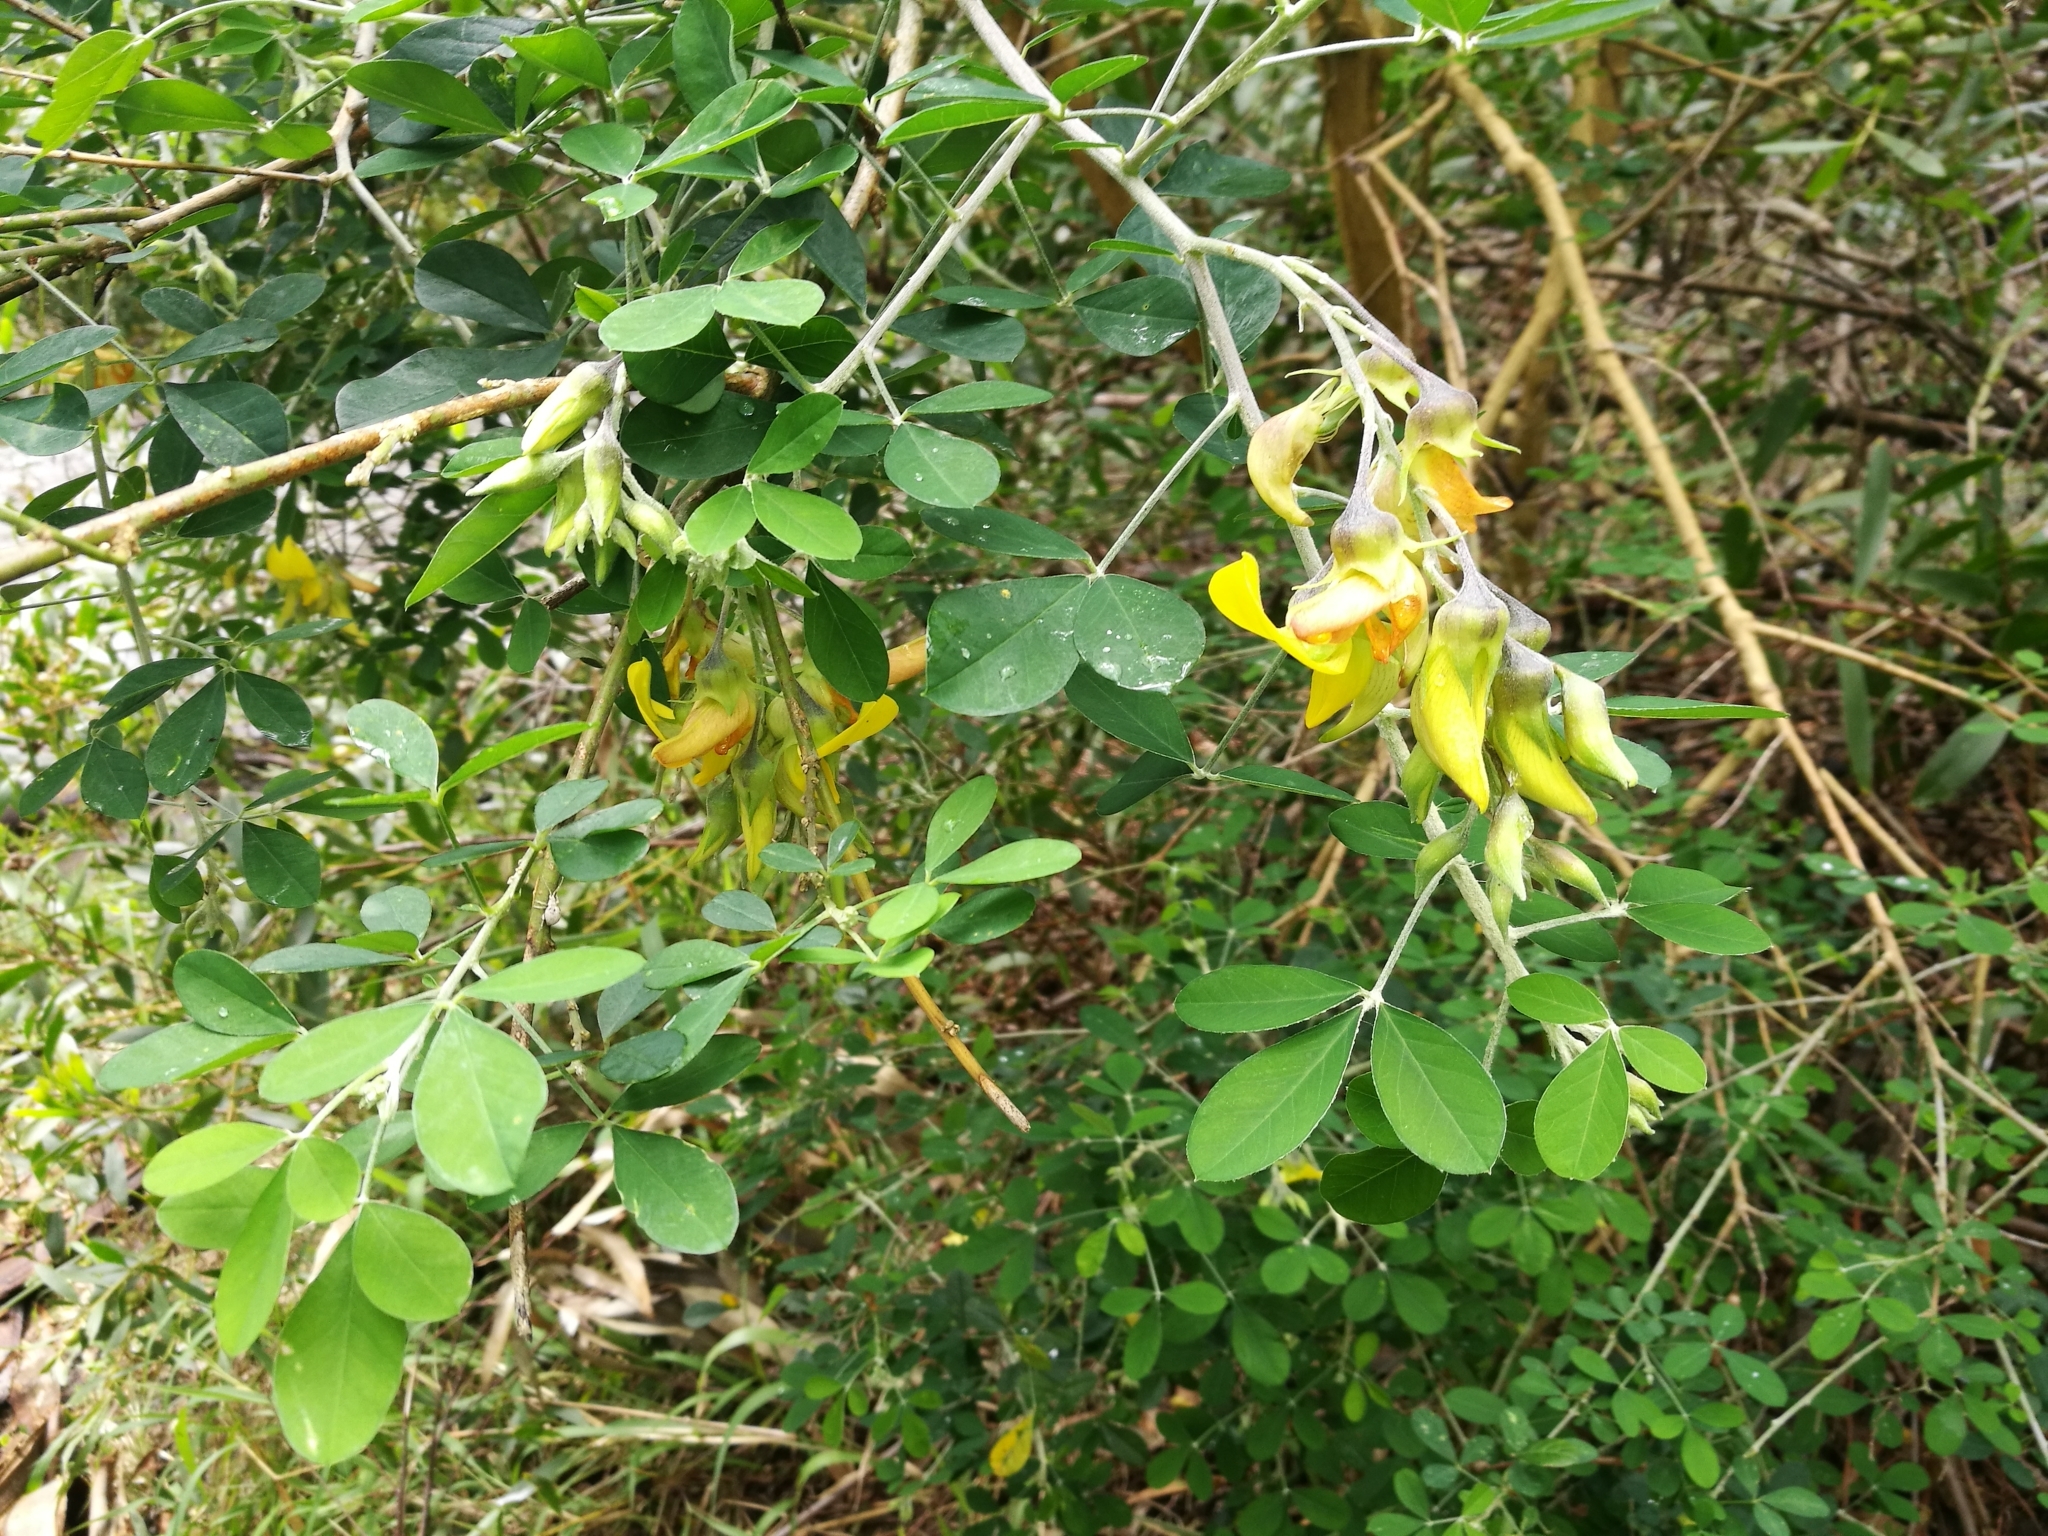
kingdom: Plantae
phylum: Tracheophyta
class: Magnoliopsida
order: Fabales
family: Fabaceae
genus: Crotalaria
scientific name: Crotalaria capensis
